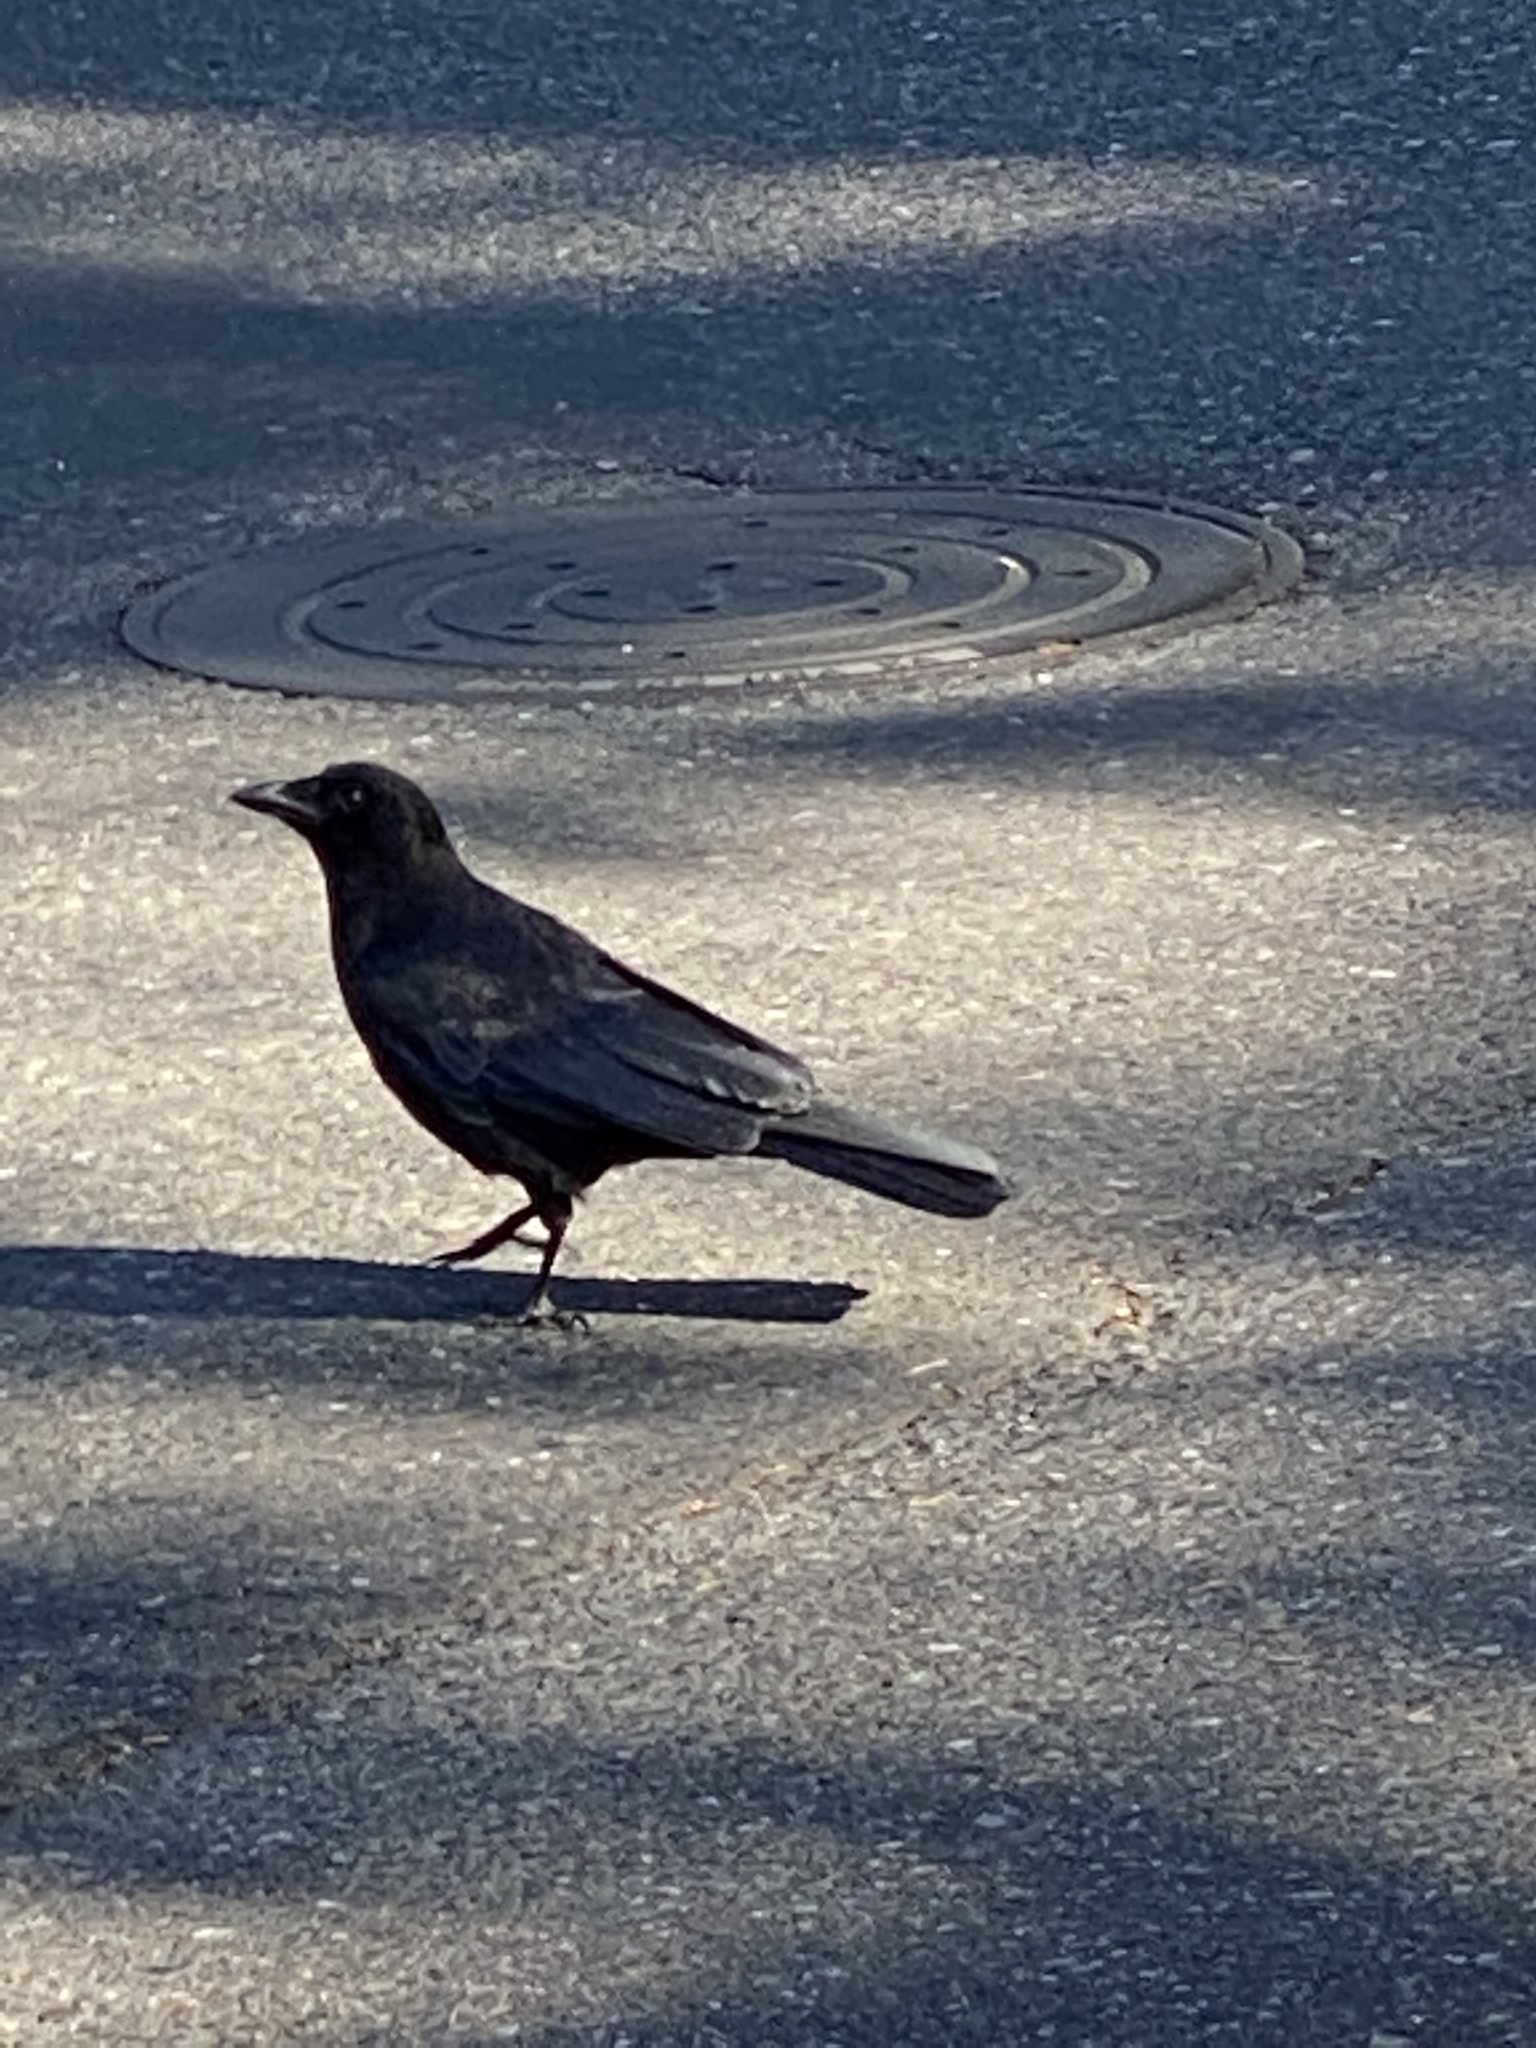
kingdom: Animalia
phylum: Chordata
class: Aves
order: Passeriformes
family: Corvidae
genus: Corvus
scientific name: Corvus brachyrhynchos
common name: American crow
